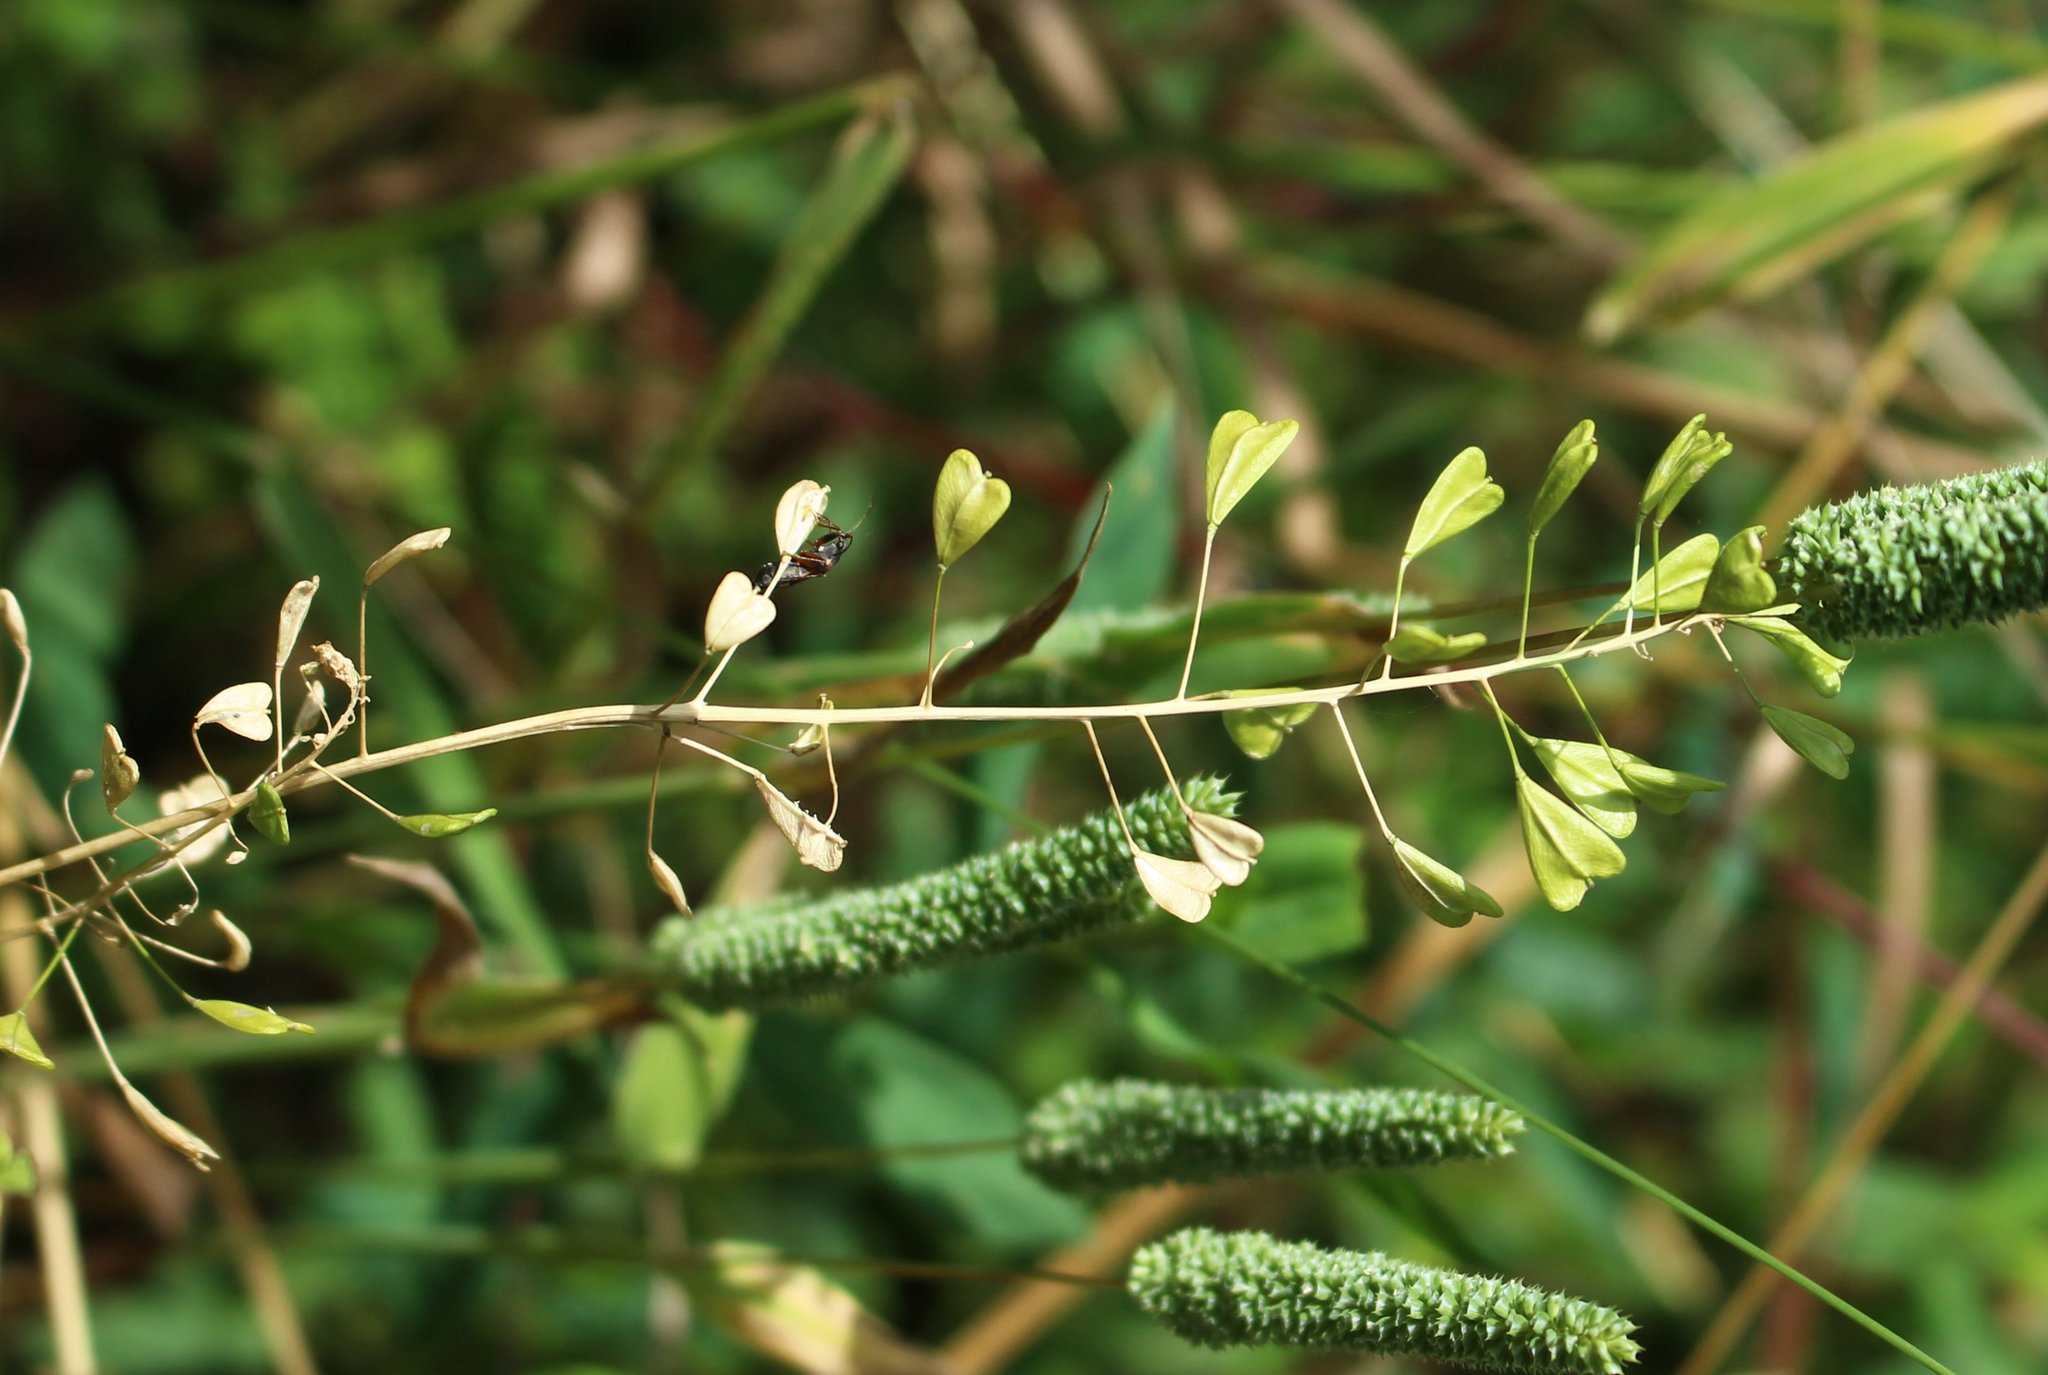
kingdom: Plantae
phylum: Tracheophyta
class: Magnoliopsida
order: Brassicales
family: Brassicaceae
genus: Capsella
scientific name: Capsella bursa-pastoris
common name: Shepherd's purse
